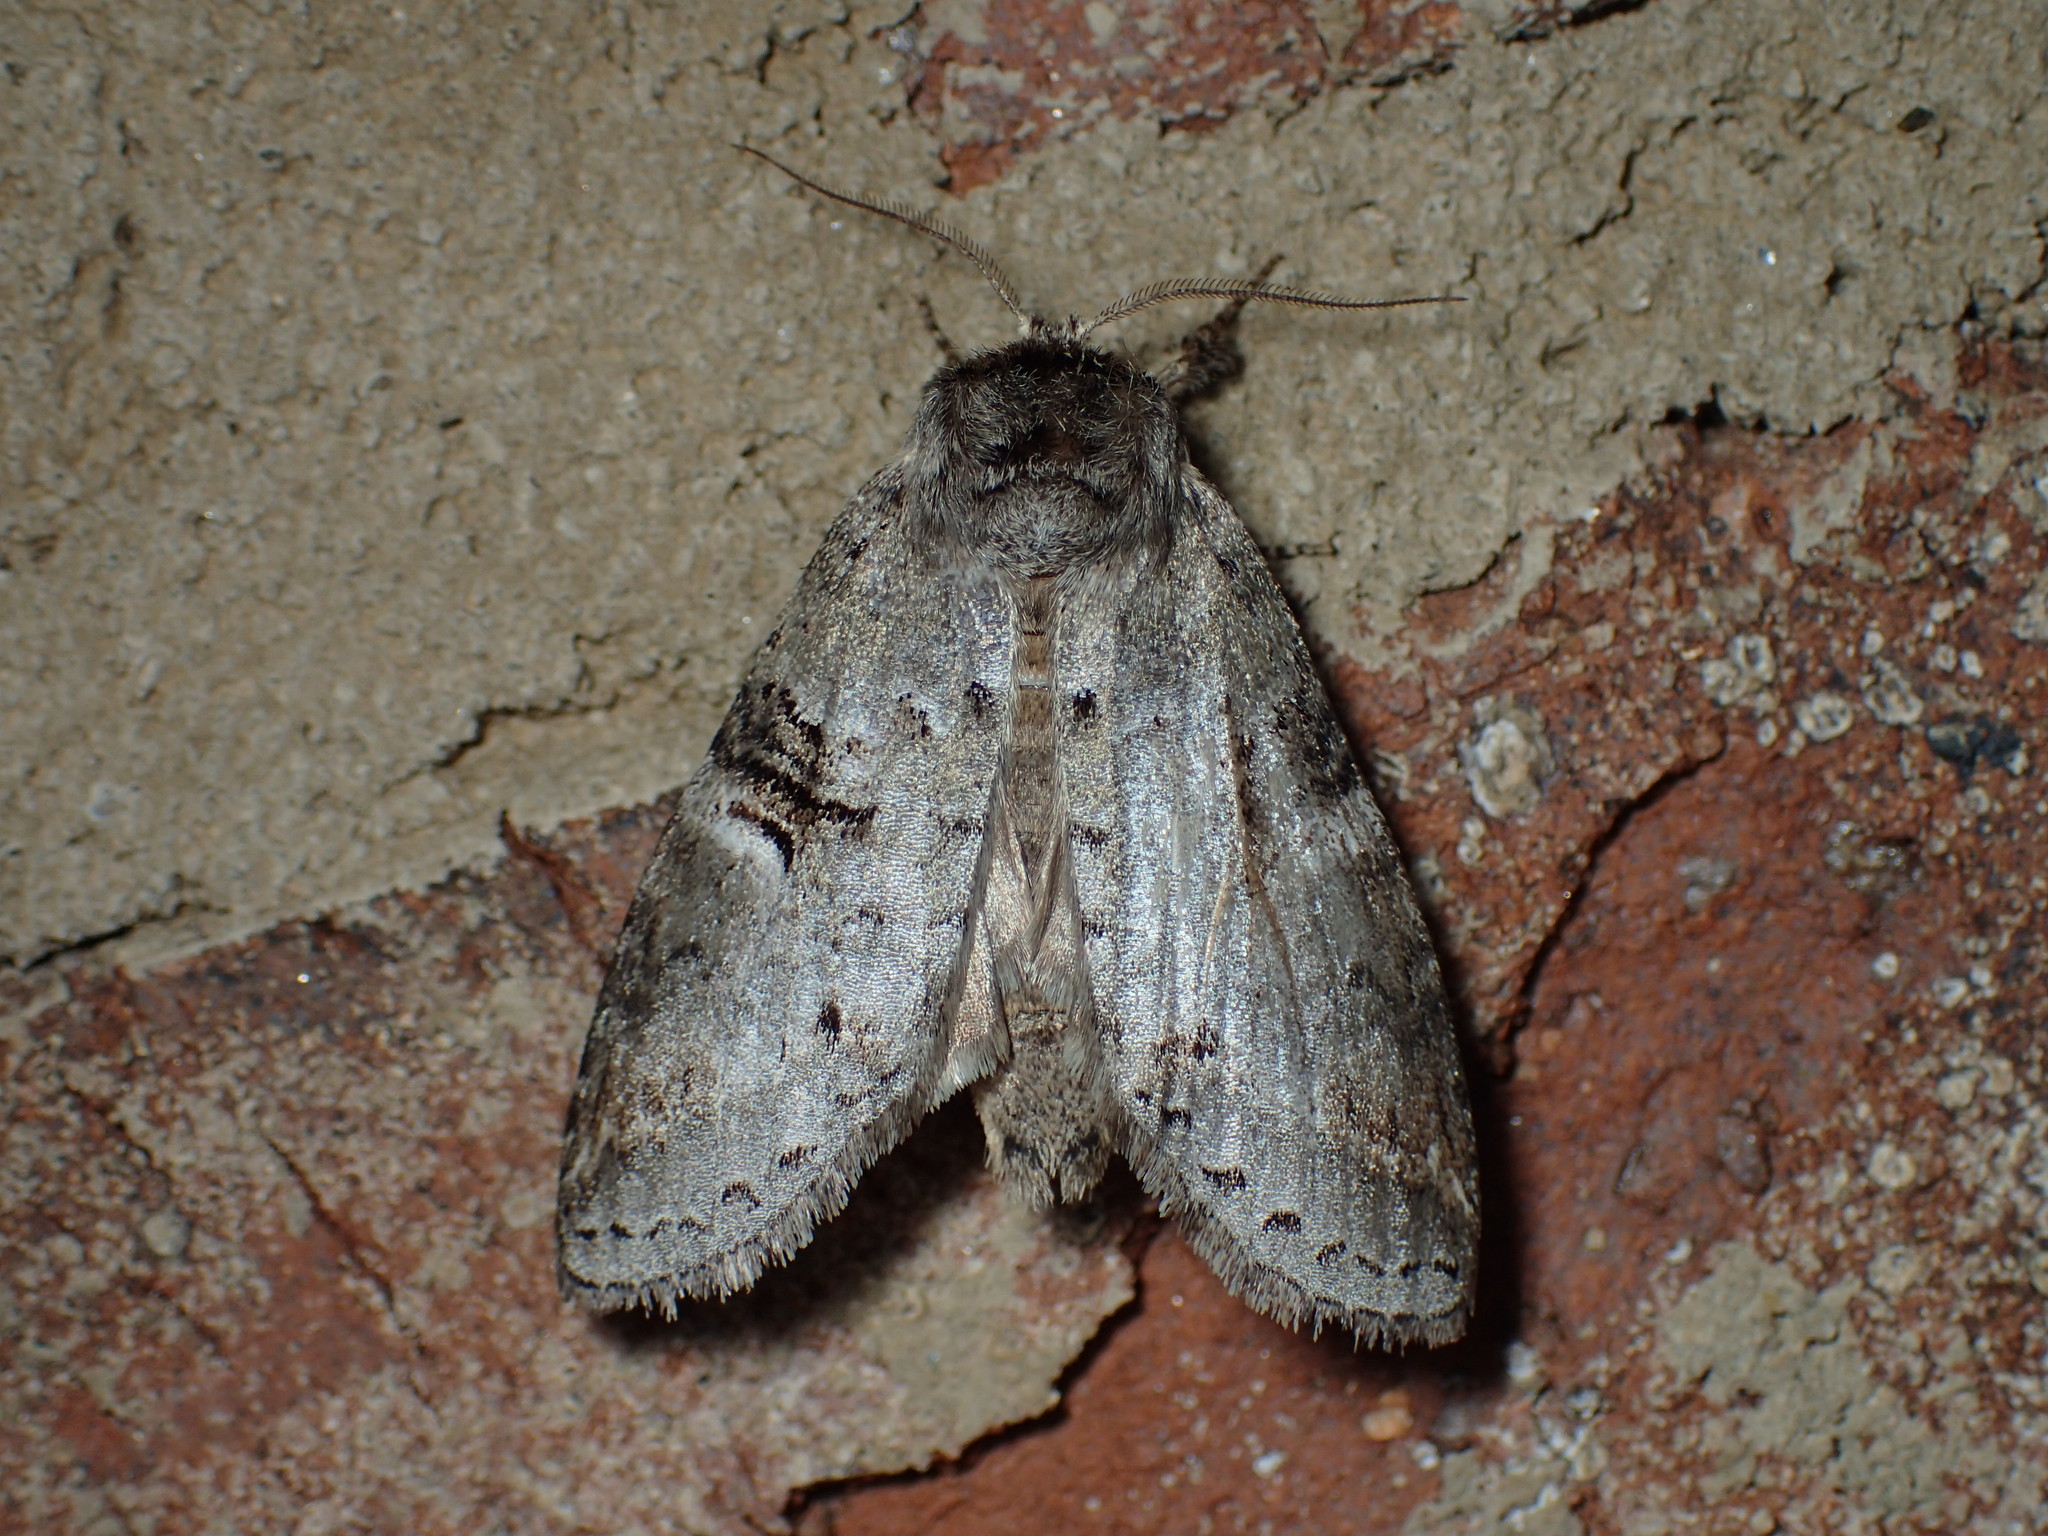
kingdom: Animalia
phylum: Arthropoda
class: Insecta
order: Lepidoptera
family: Notodontidae
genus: Ellida
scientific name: Ellida caniplaga
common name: Linden prominent
